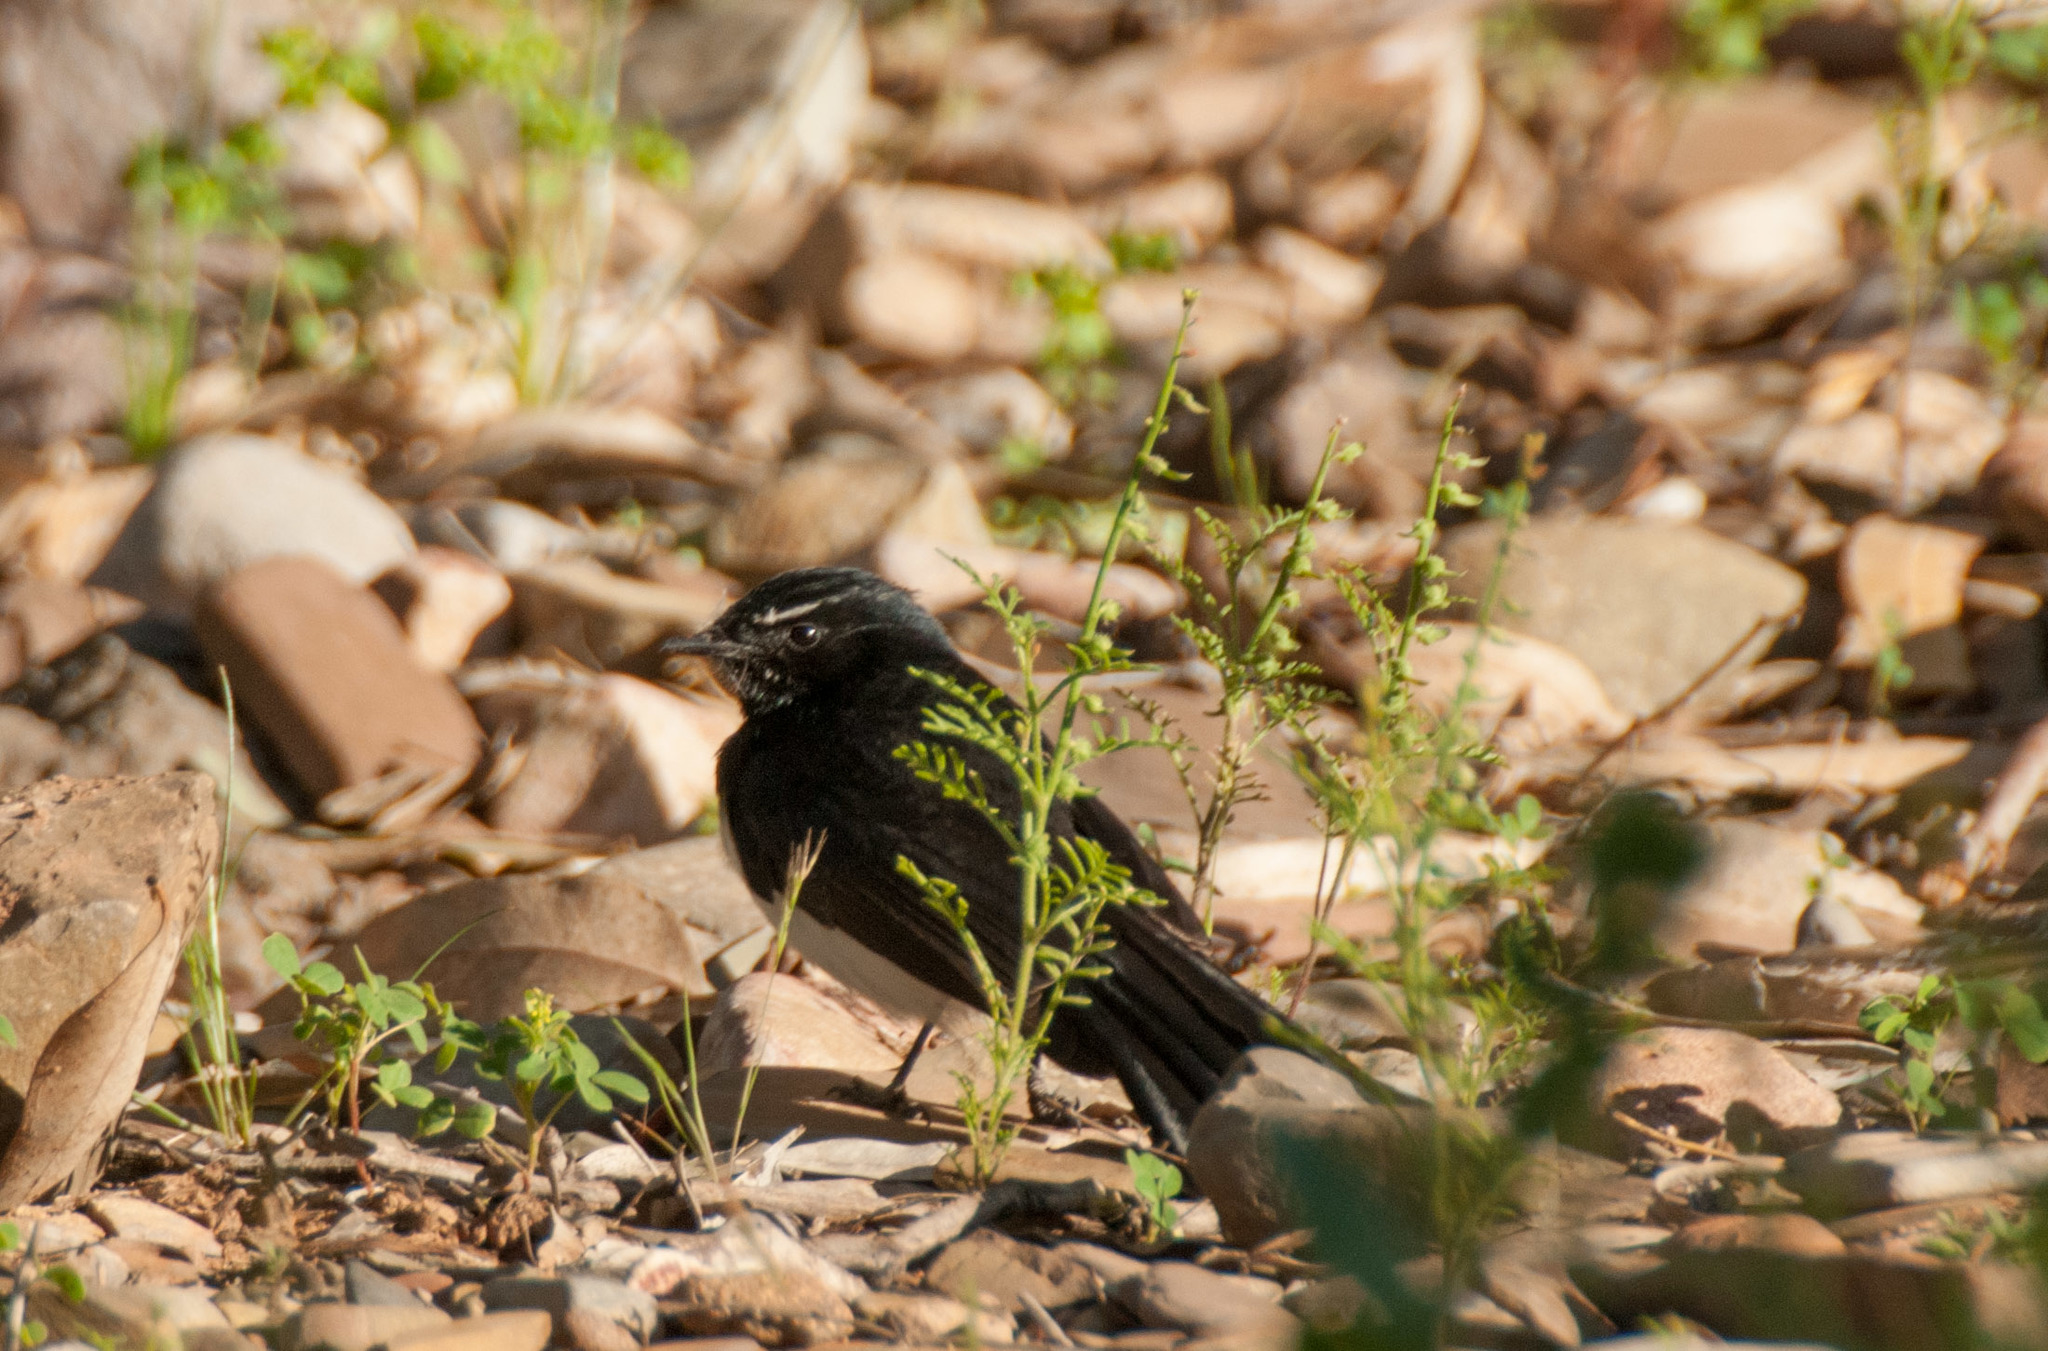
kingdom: Animalia
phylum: Chordata
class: Aves
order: Passeriformes
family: Rhipiduridae
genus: Rhipidura
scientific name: Rhipidura leucophrys
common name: Willie wagtail
